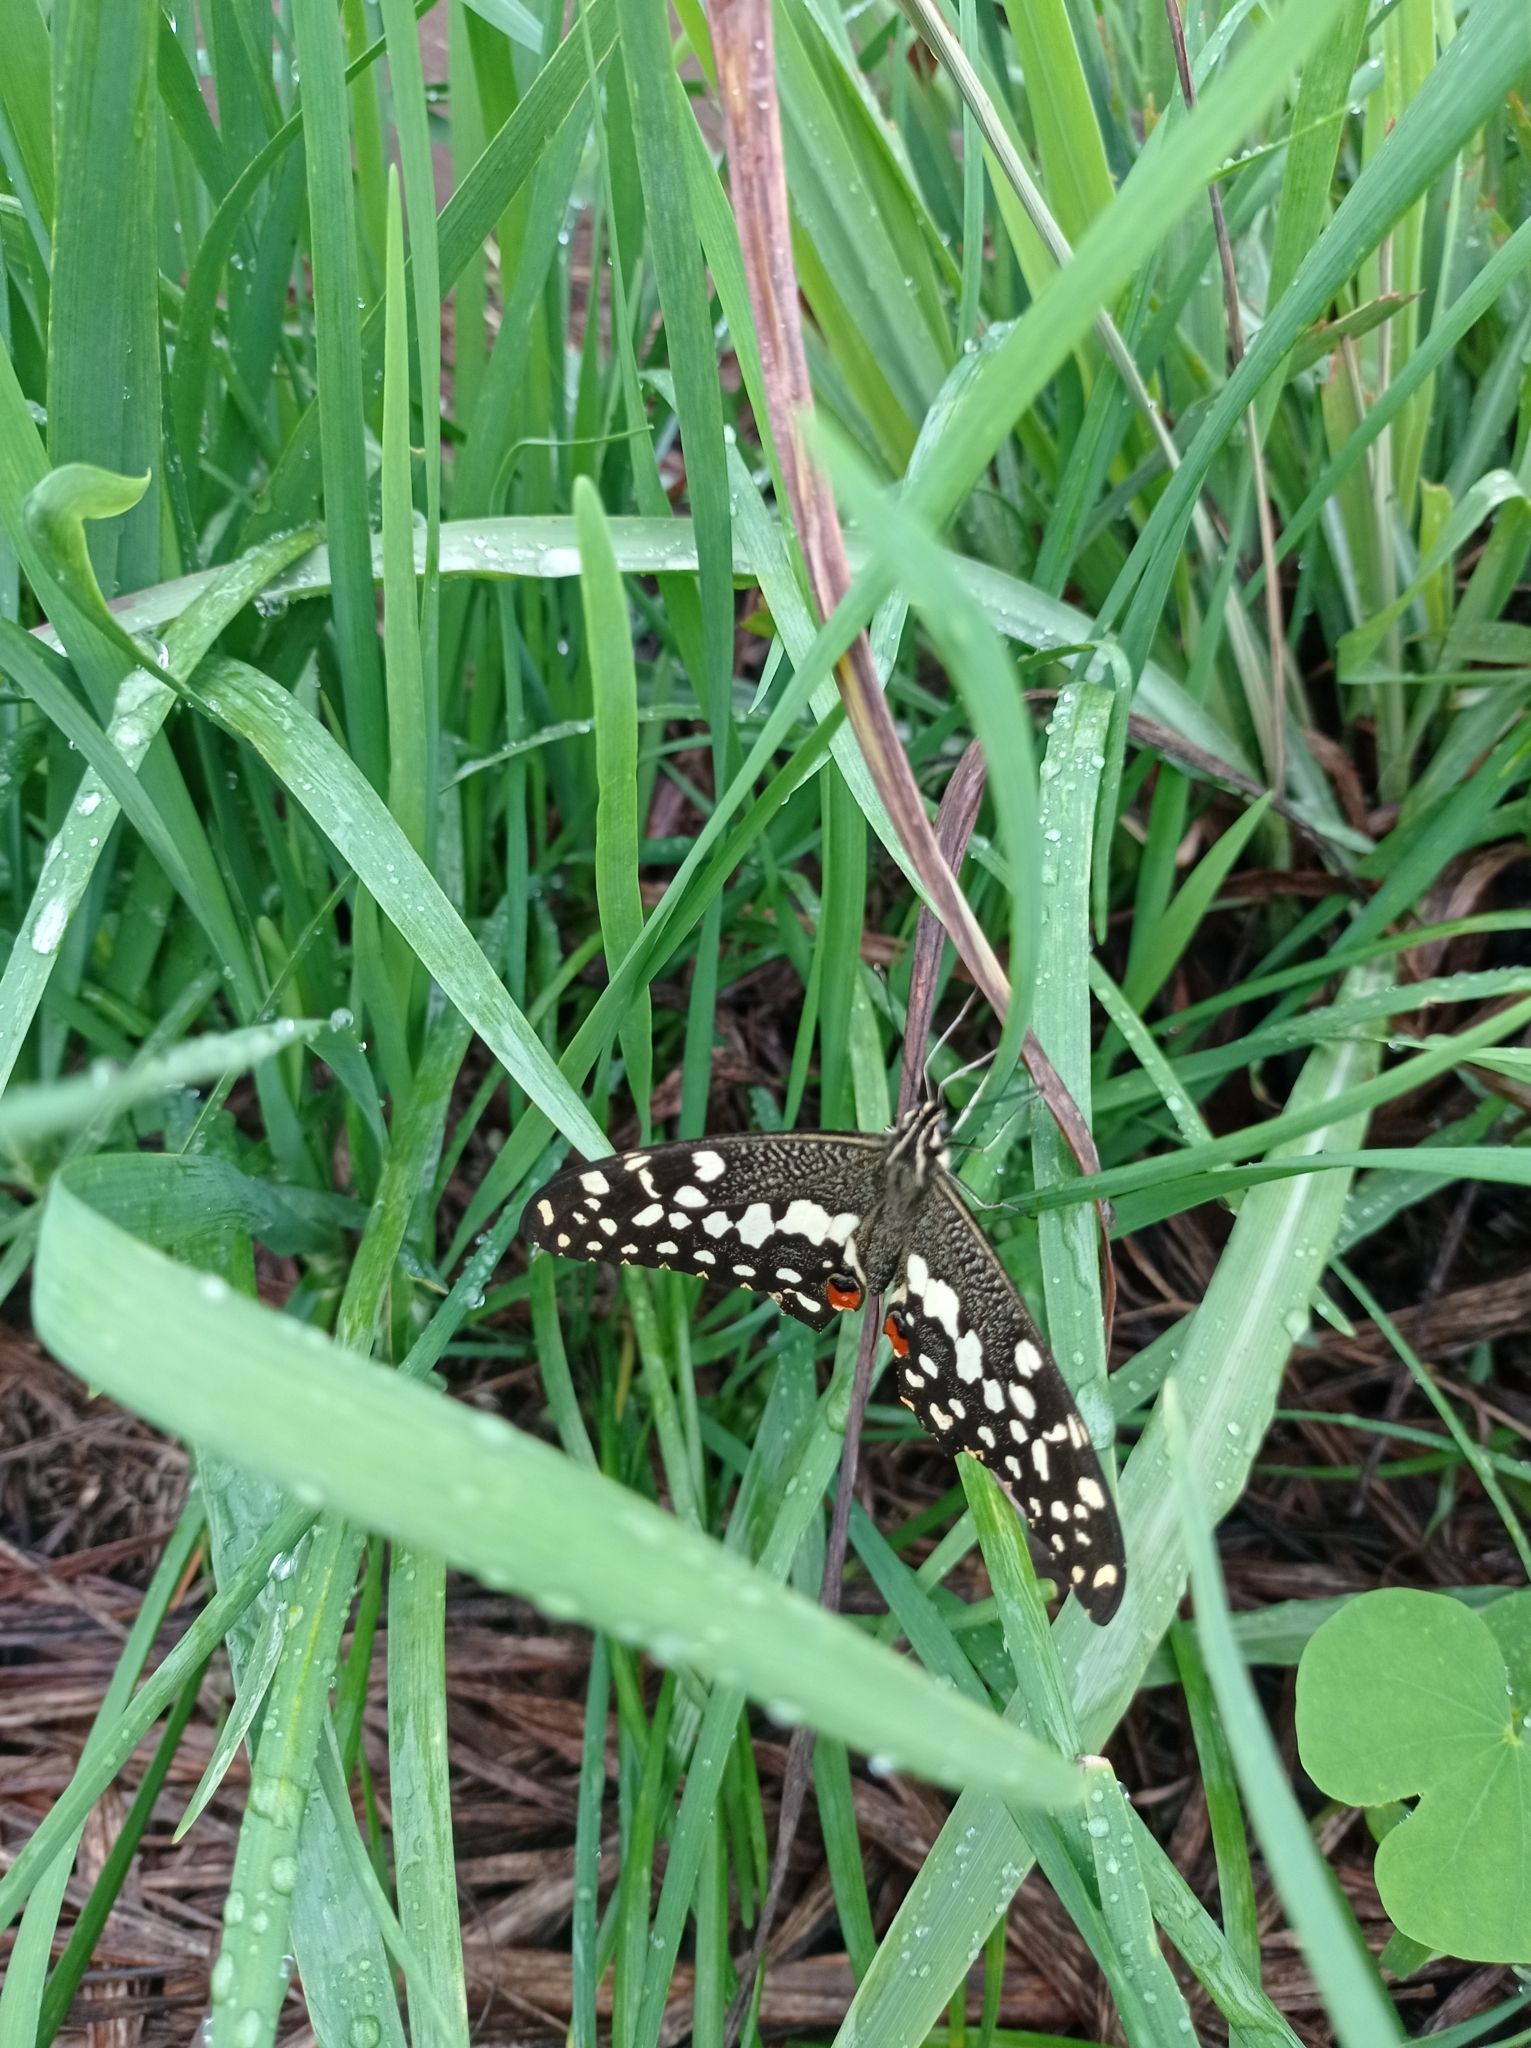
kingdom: Animalia
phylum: Arthropoda
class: Insecta
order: Lepidoptera
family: Papilionidae
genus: Papilio
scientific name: Papilio demodocus
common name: Christmas butterfly
